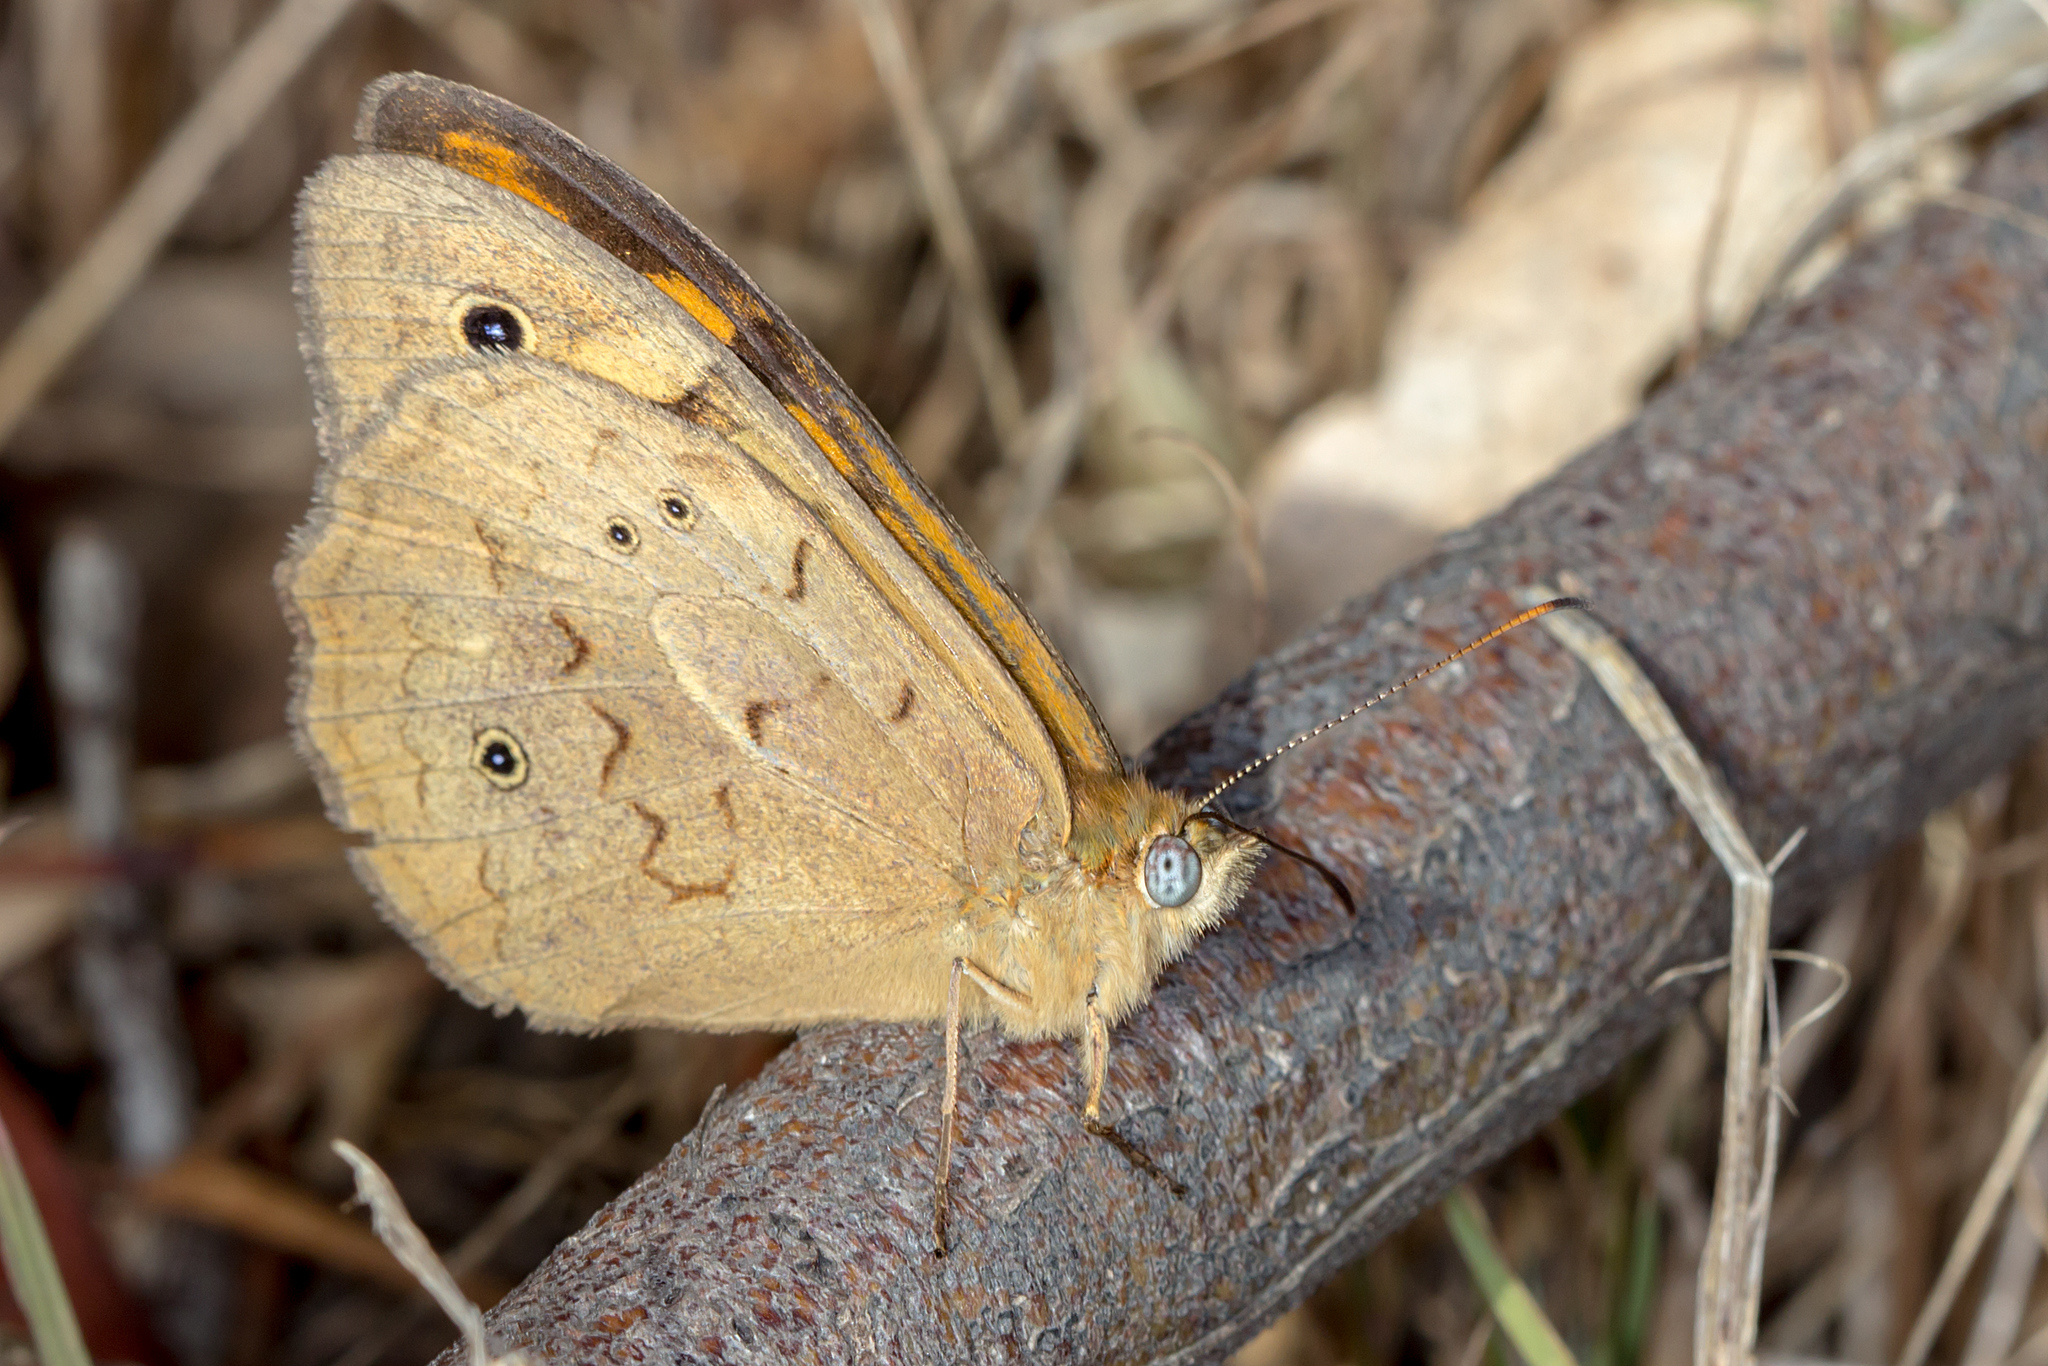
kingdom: Animalia
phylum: Arthropoda
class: Insecta
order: Lepidoptera
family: Nymphalidae
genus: Heteronympha
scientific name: Heteronympha merope
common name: Common brown
